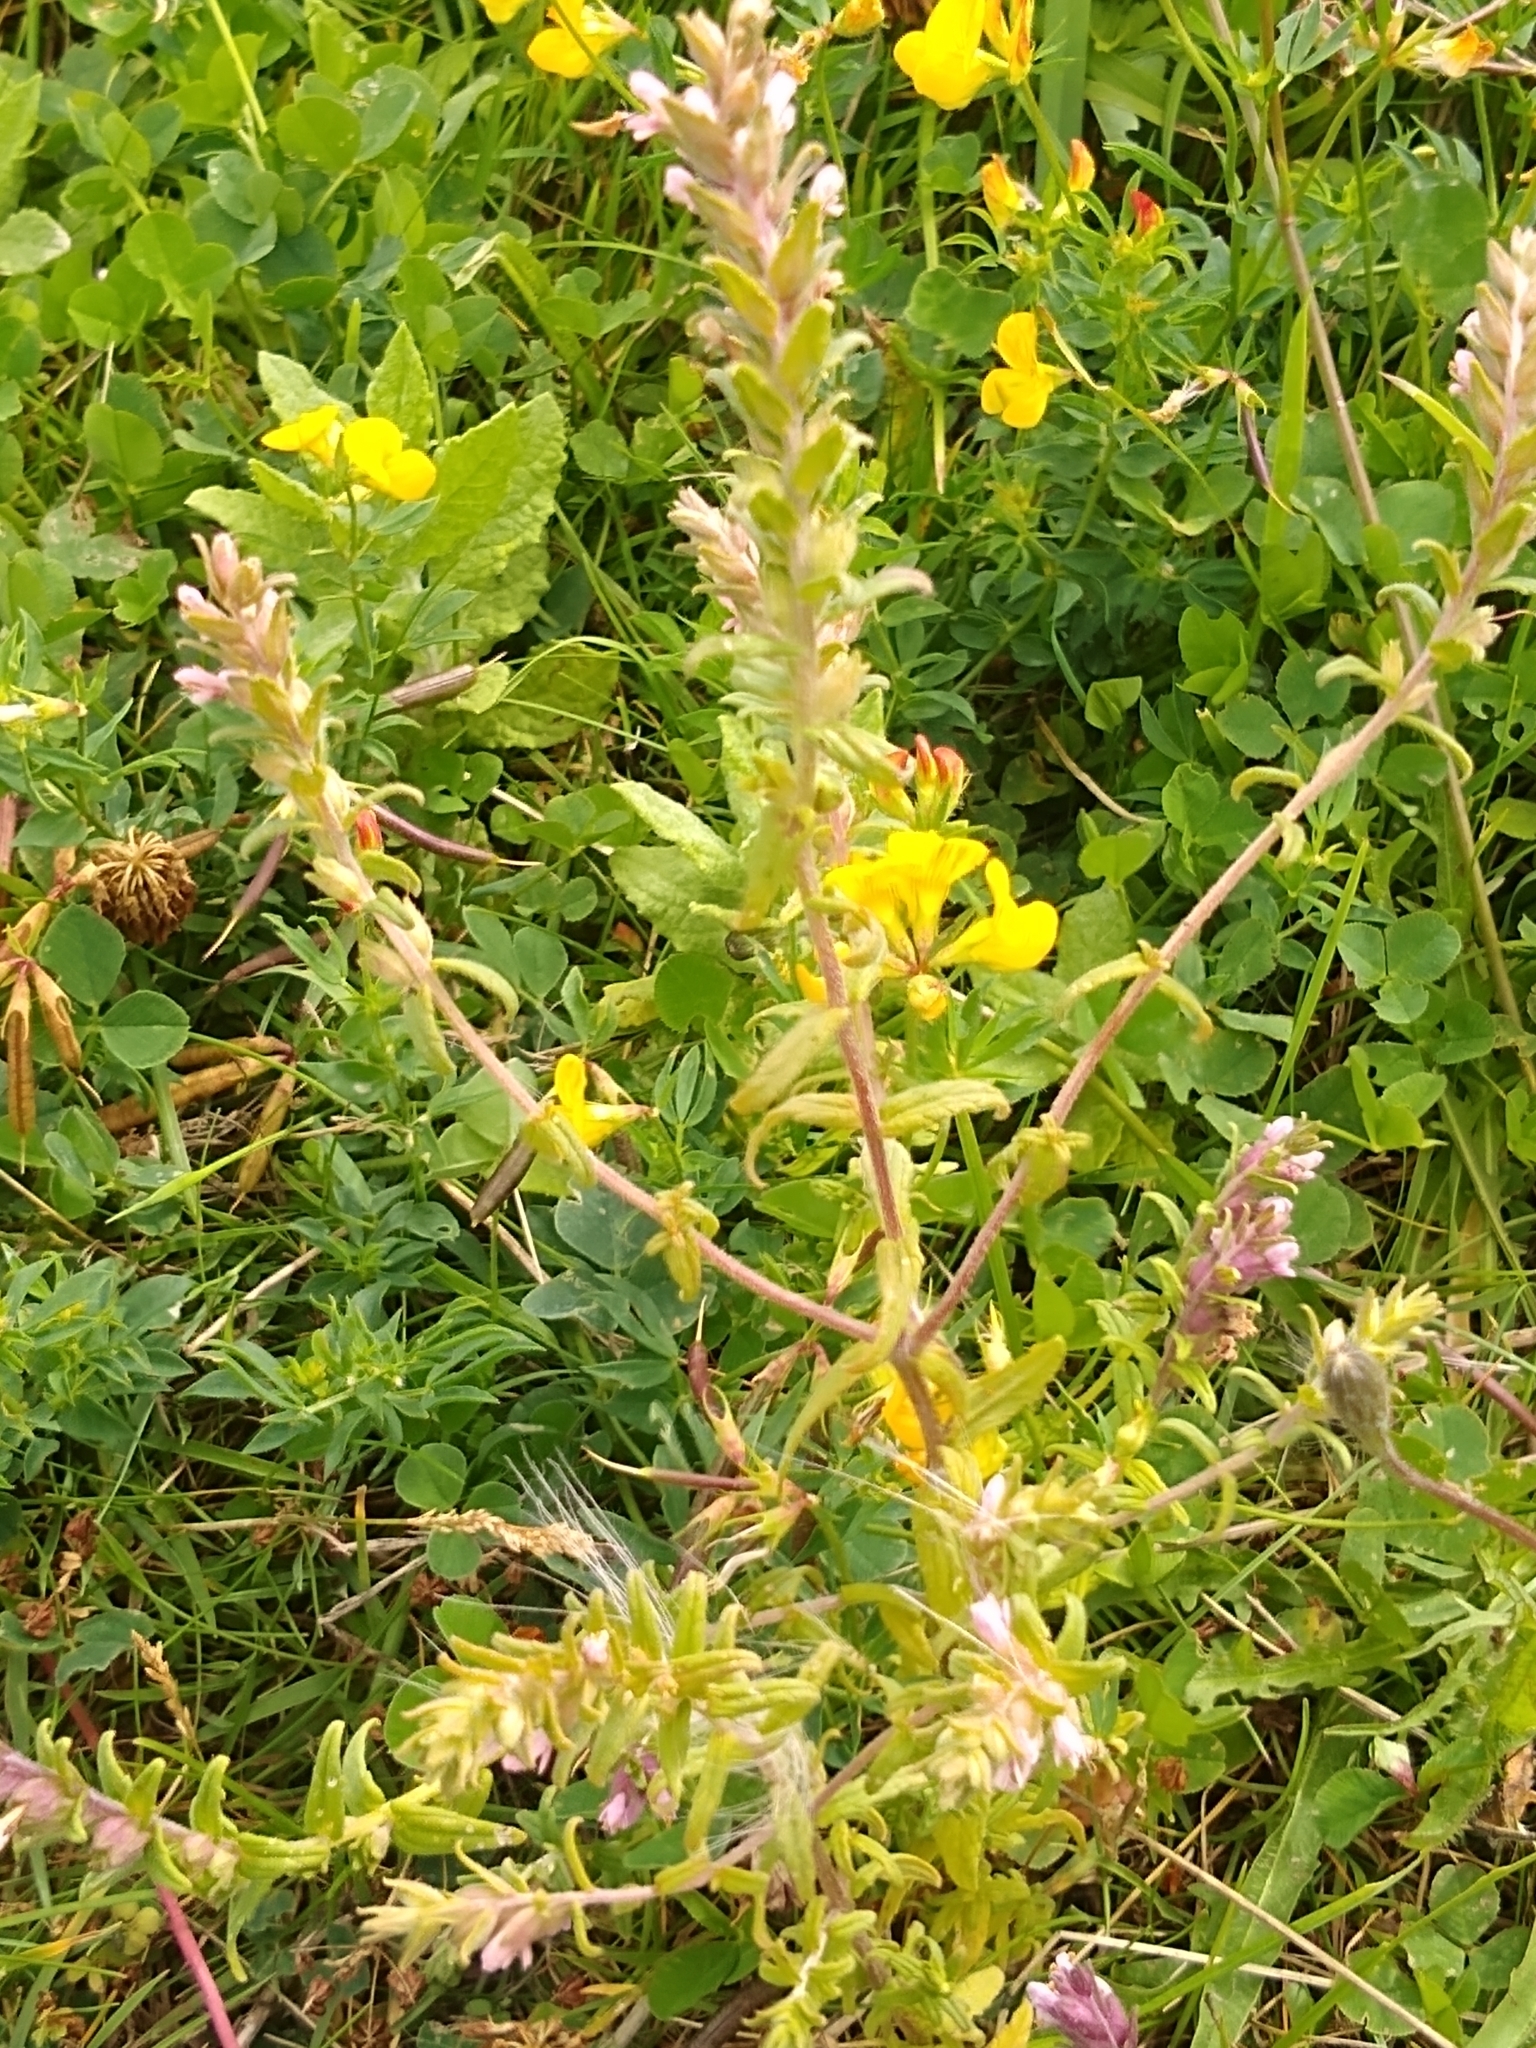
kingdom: Plantae
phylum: Tracheophyta
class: Magnoliopsida
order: Lamiales
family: Orobanchaceae
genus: Odontites
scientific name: Odontites vernus
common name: Red bartsia
